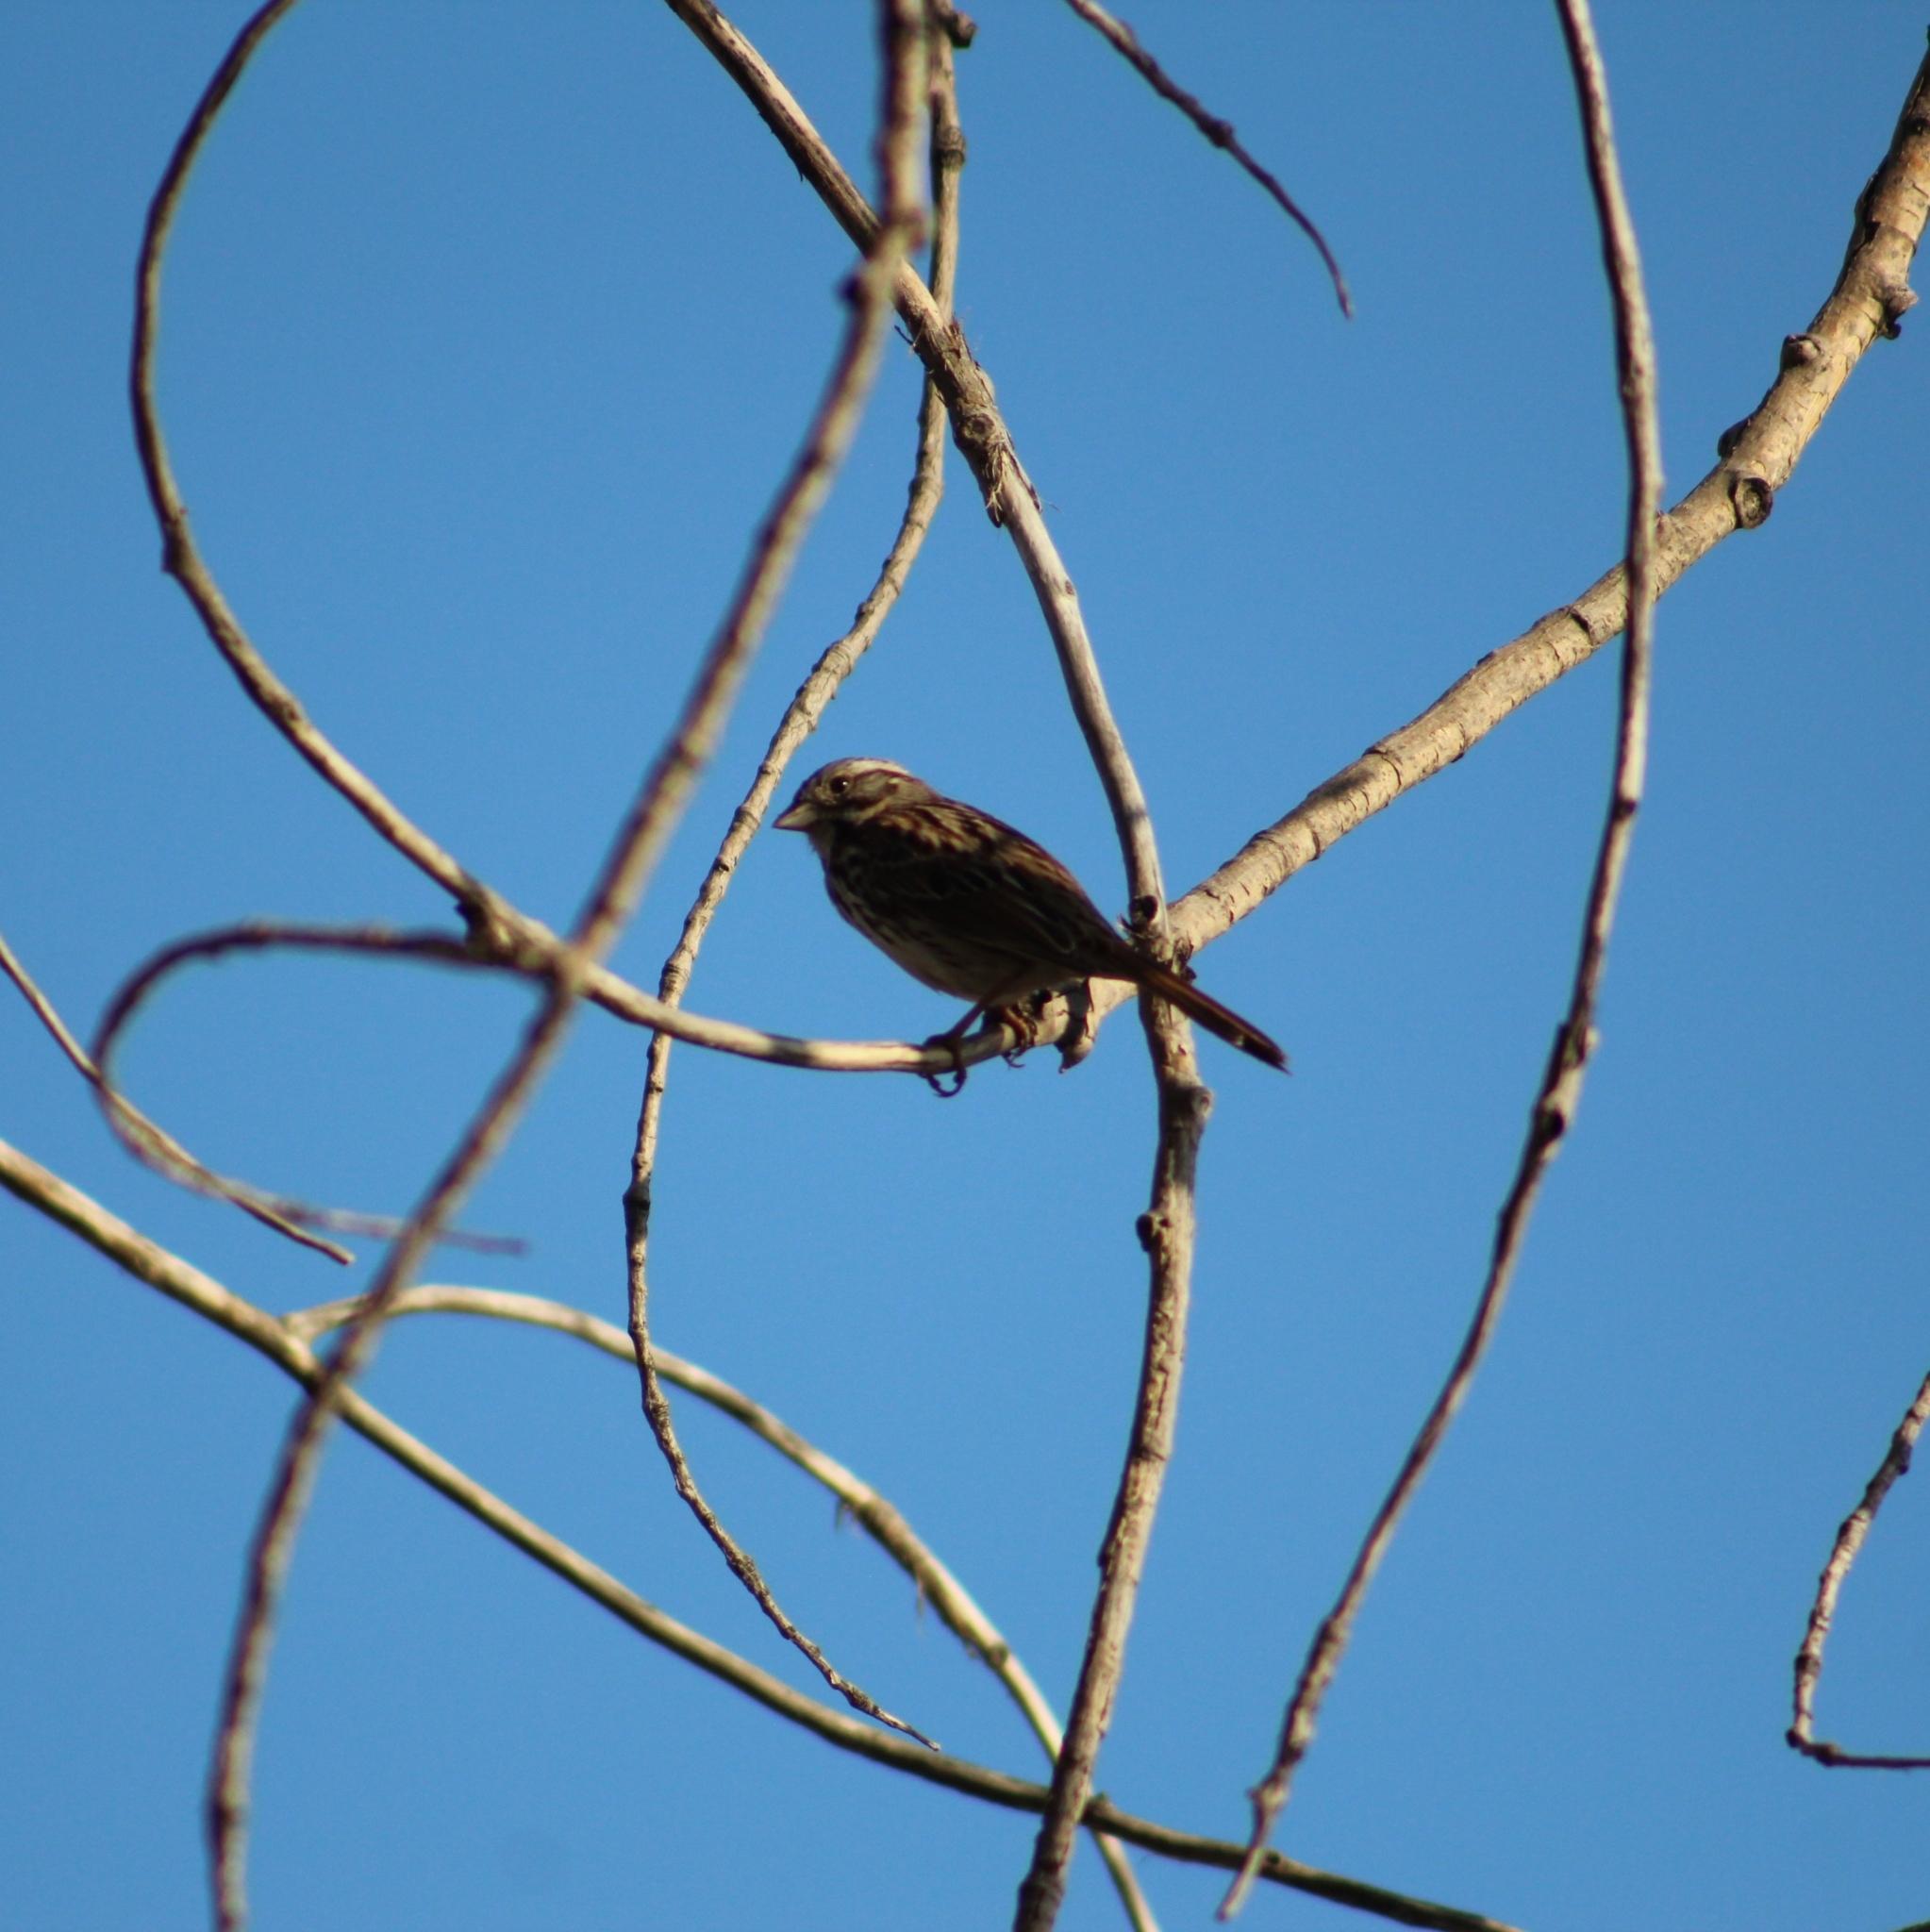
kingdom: Animalia
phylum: Chordata
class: Aves
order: Passeriformes
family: Passerellidae
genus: Melospiza
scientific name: Melospiza melodia
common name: Song sparrow
